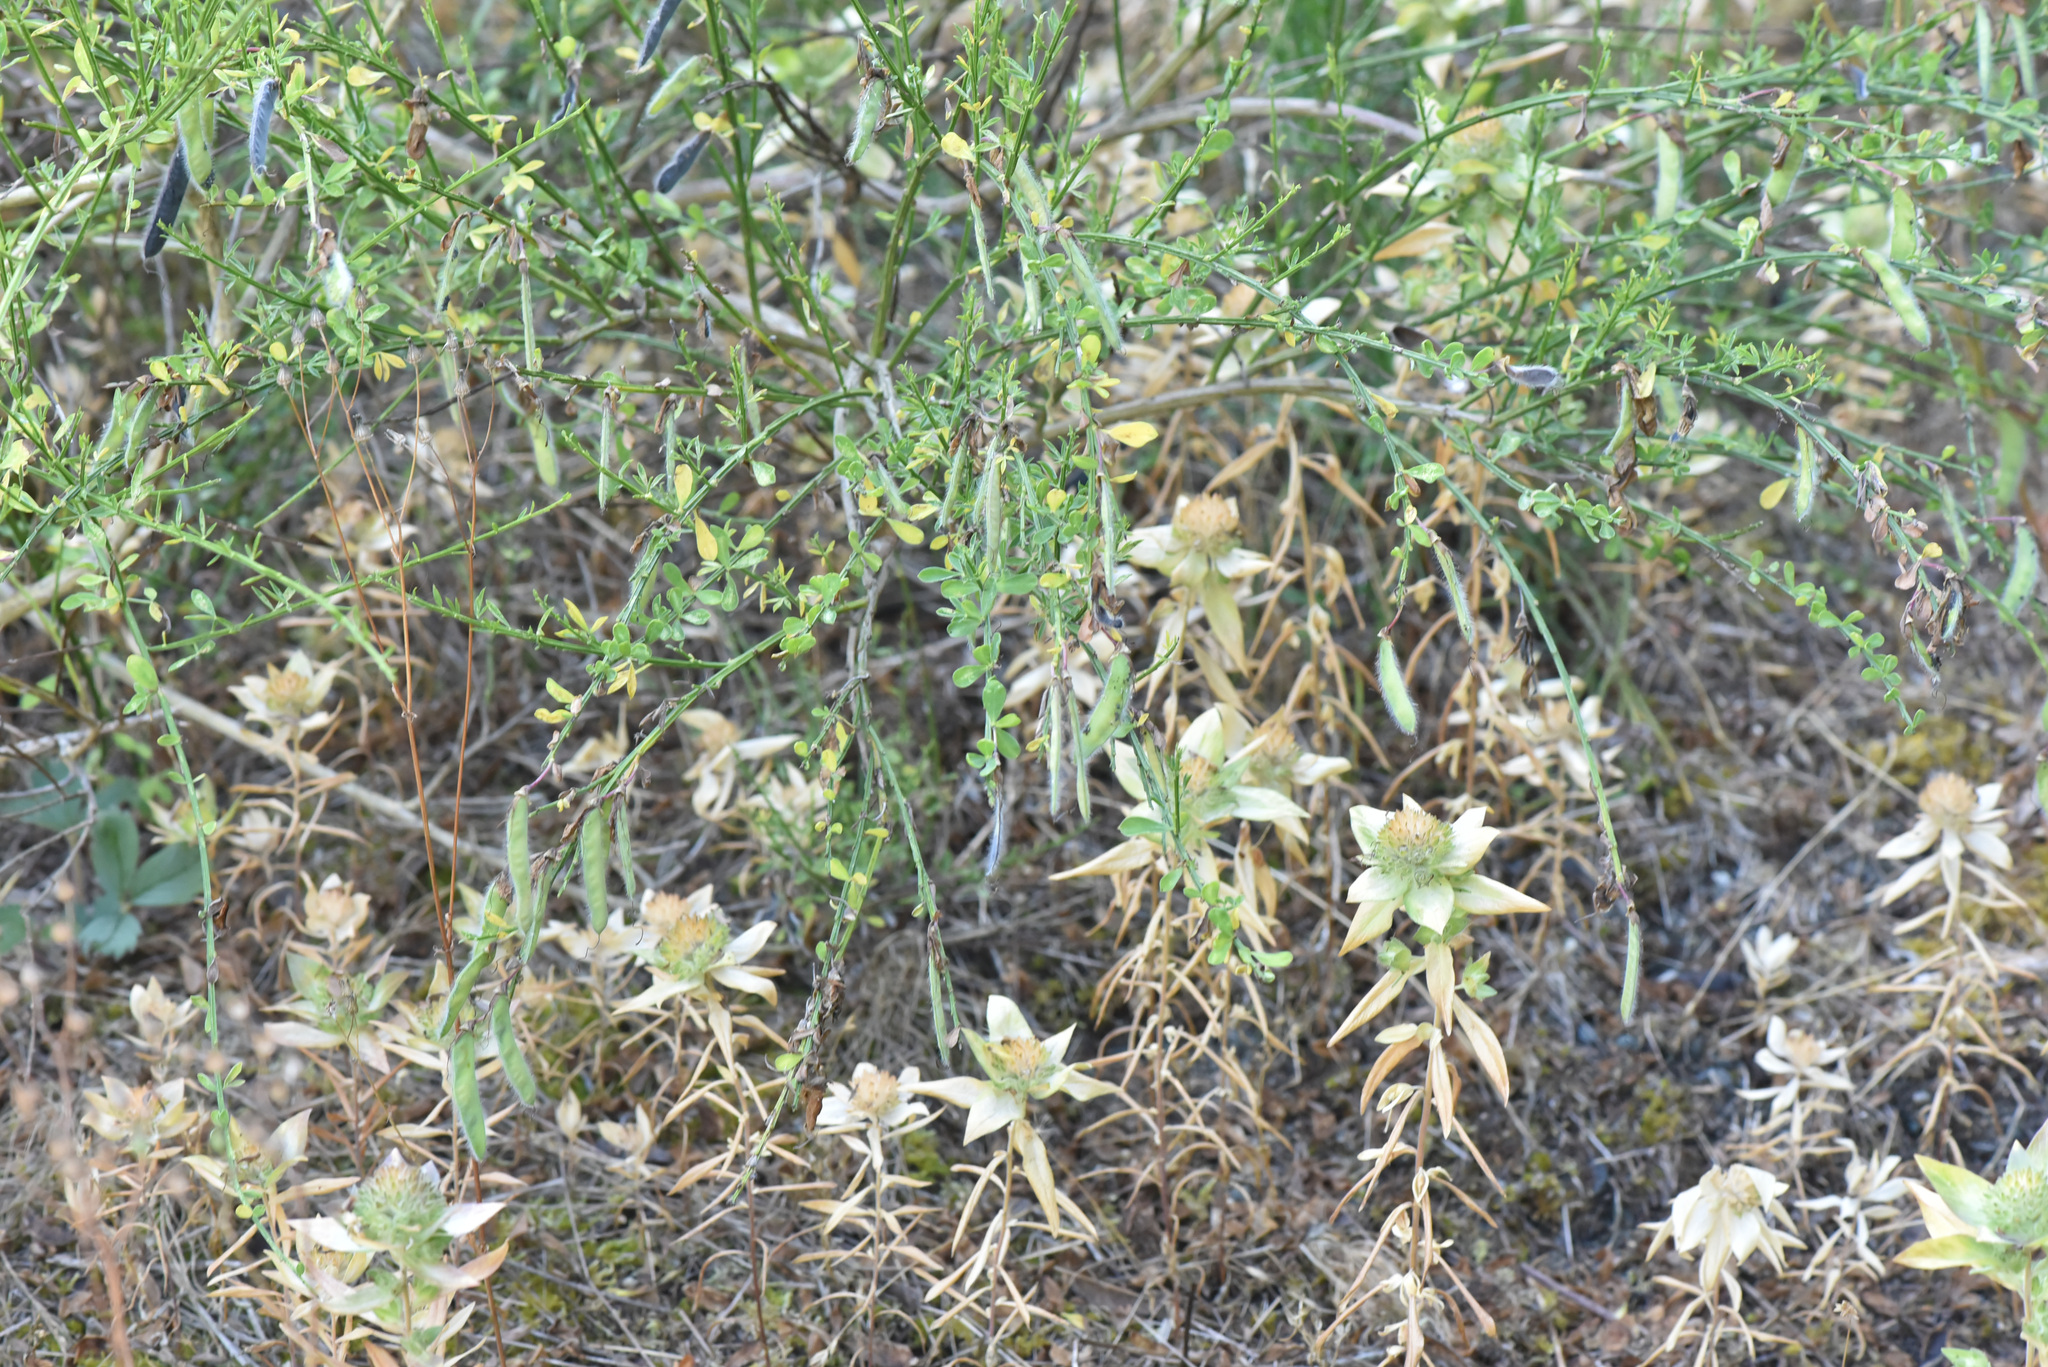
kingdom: Plantae
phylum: Tracheophyta
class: Magnoliopsida
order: Fabales
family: Fabaceae
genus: Cytisus
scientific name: Cytisus scoparius
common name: Scotch broom
